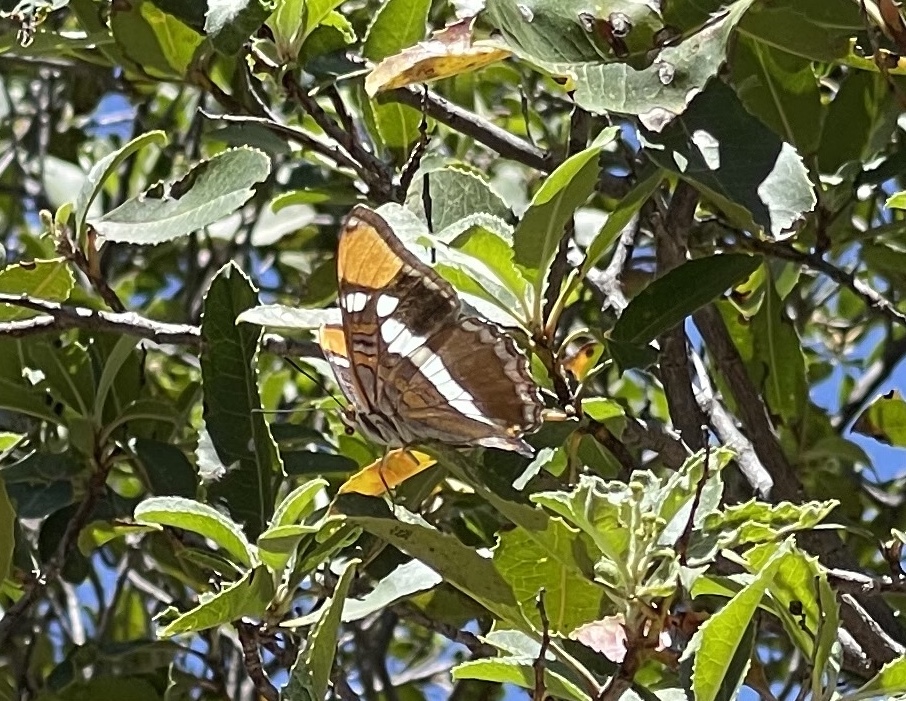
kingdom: Animalia
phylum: Arthropoda
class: Insecta
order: Lepidoptera
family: Nymphalidae
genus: Limenitis
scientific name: Limenitis bredowii
